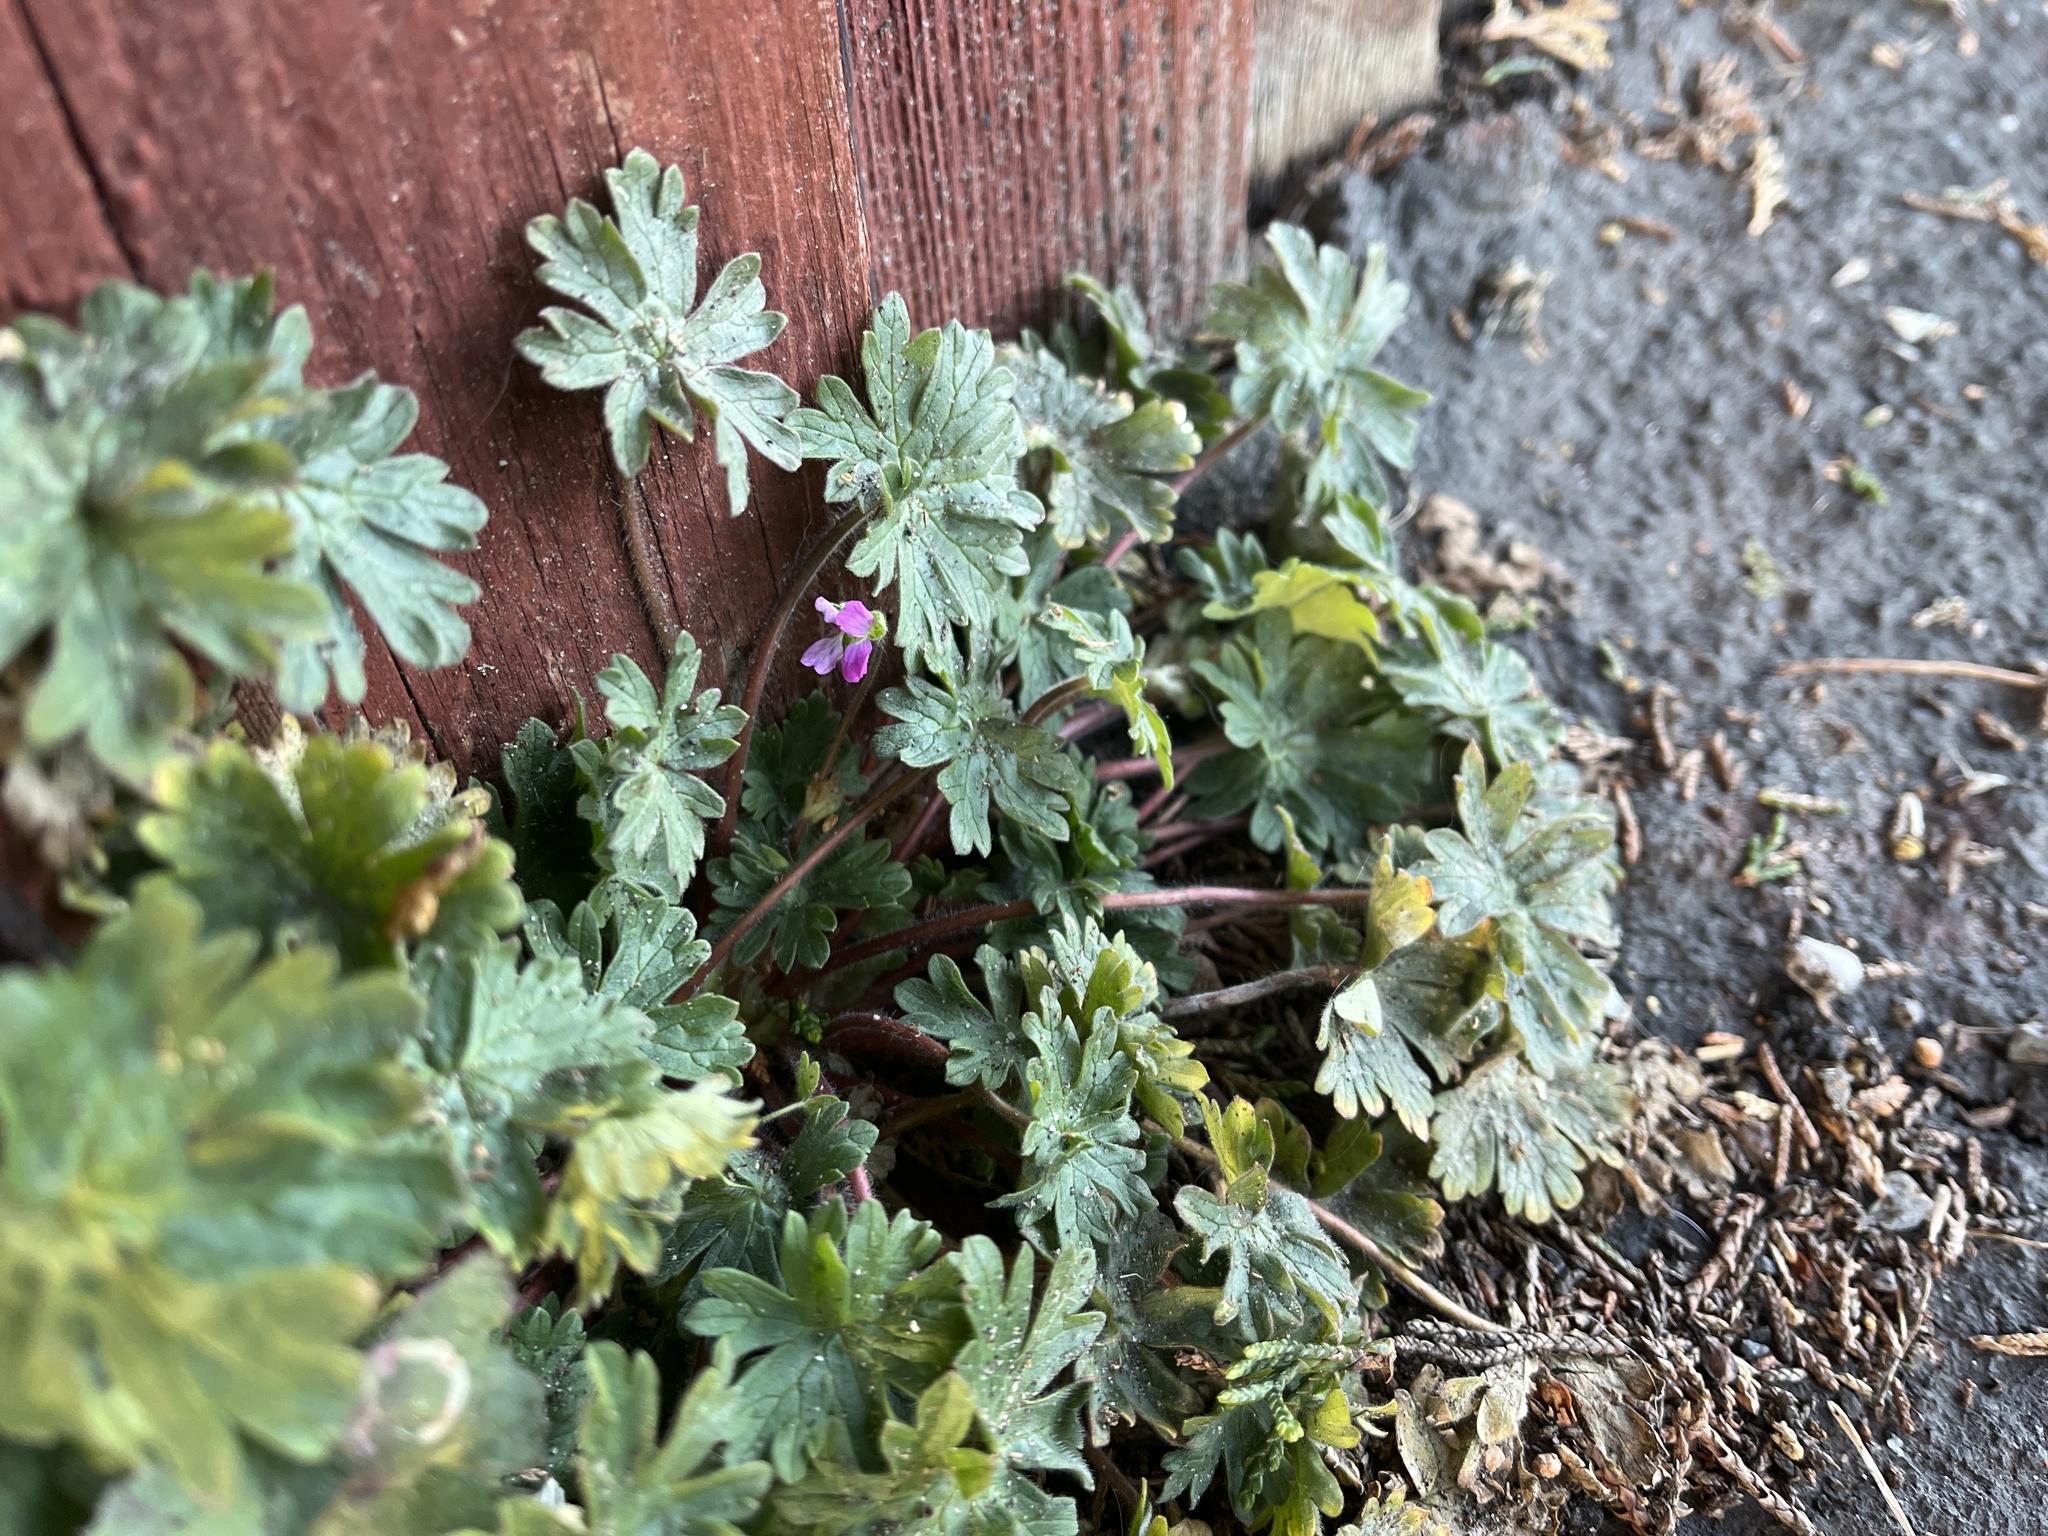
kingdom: Plantae
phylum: Tracheophyta
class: Magnoliopsida
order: Geraniales
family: Geraniaceae
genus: Geranium
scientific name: Geranium molle
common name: Dove's-foot crane's-bill
